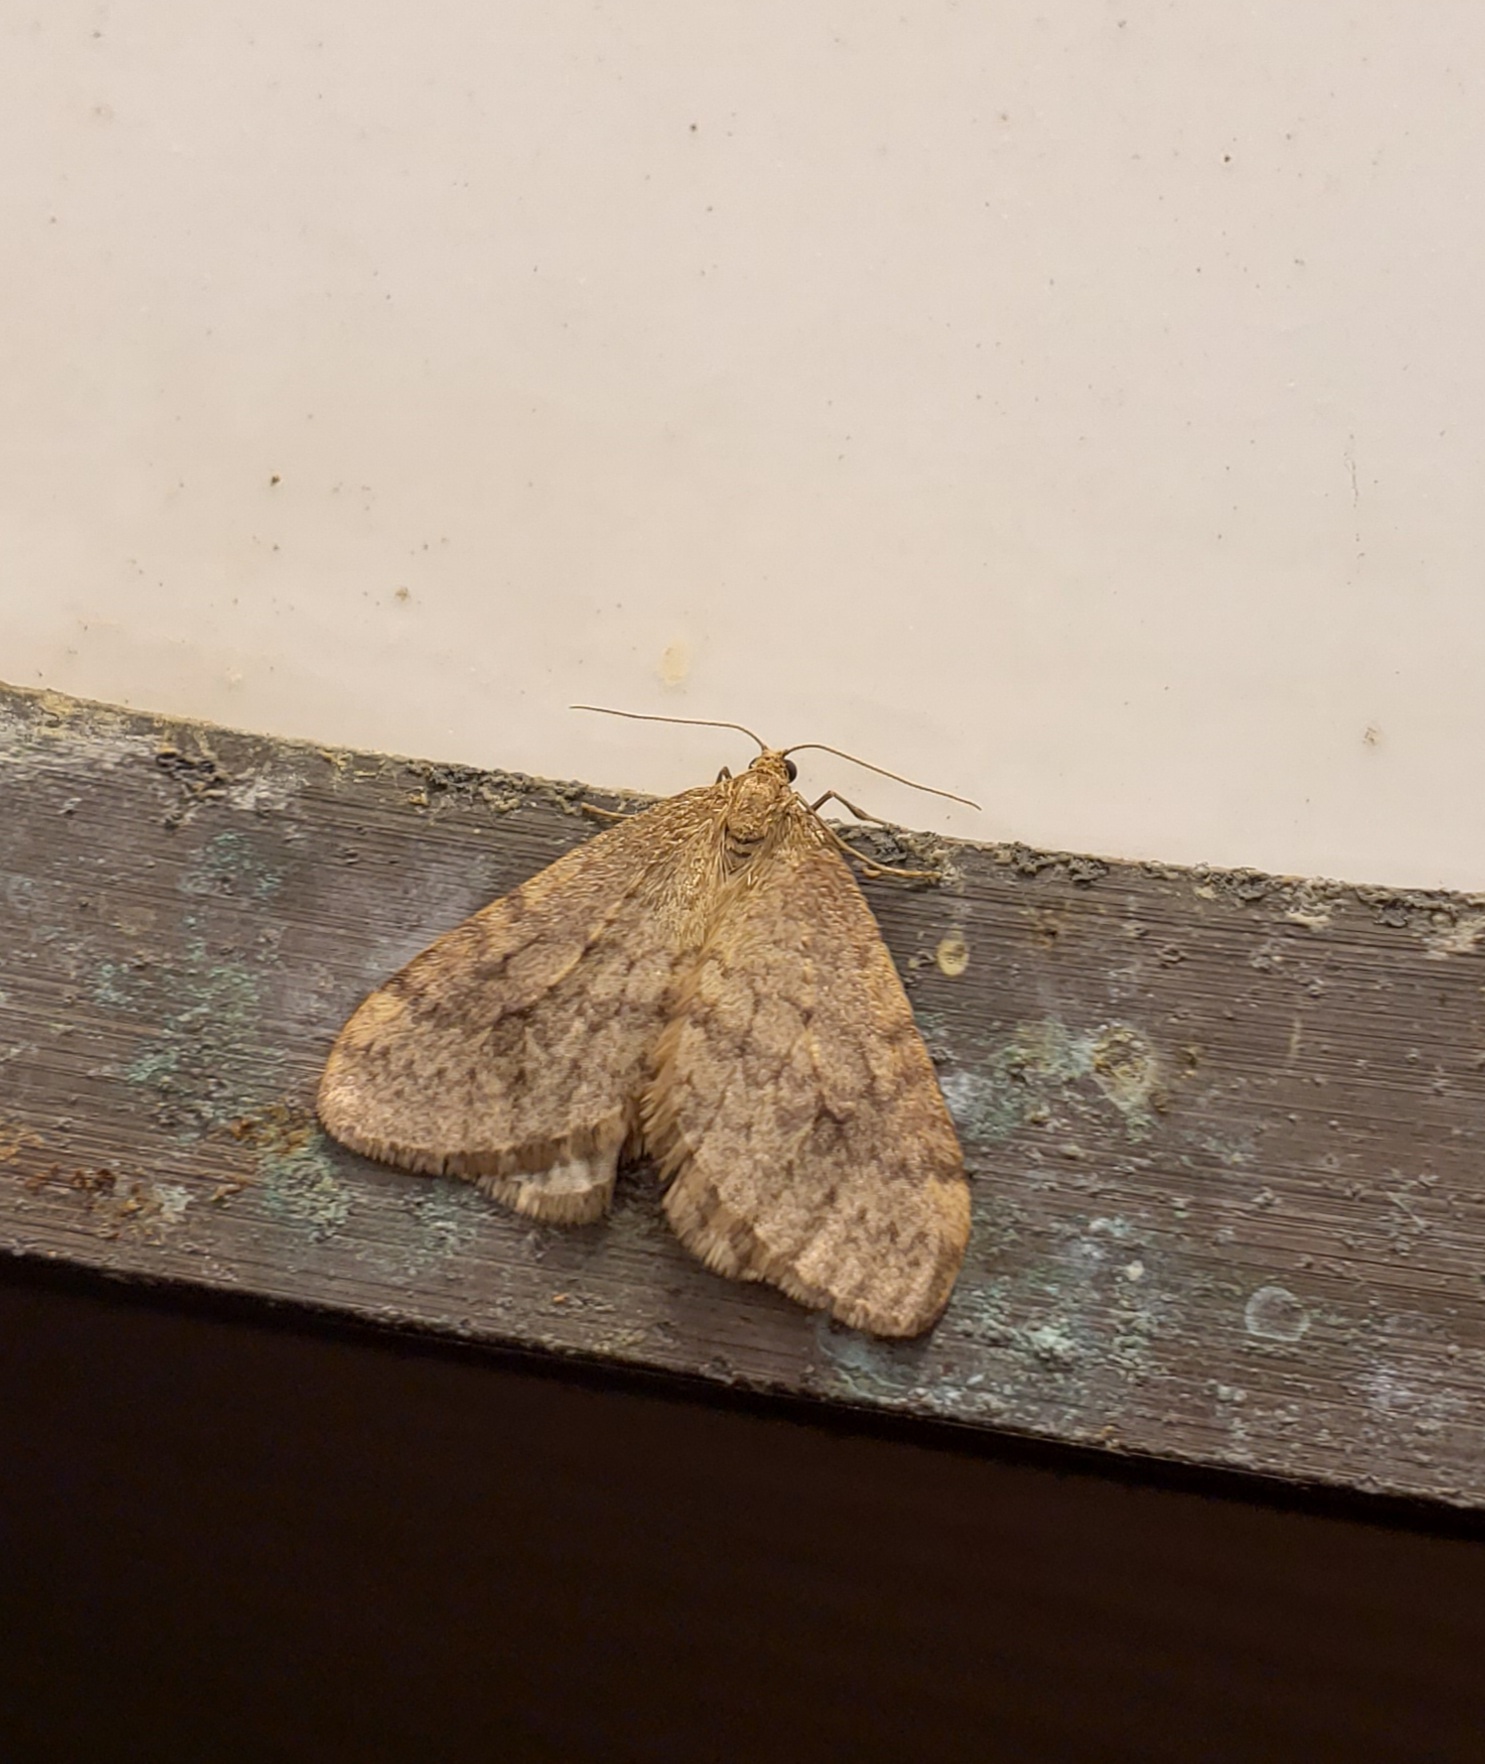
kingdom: Animalia
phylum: Arthropoda
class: Insecta
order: Lepidoptera
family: Geometridae
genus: Operophtera
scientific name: Operophtera bruceata
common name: Bruce spanworm
